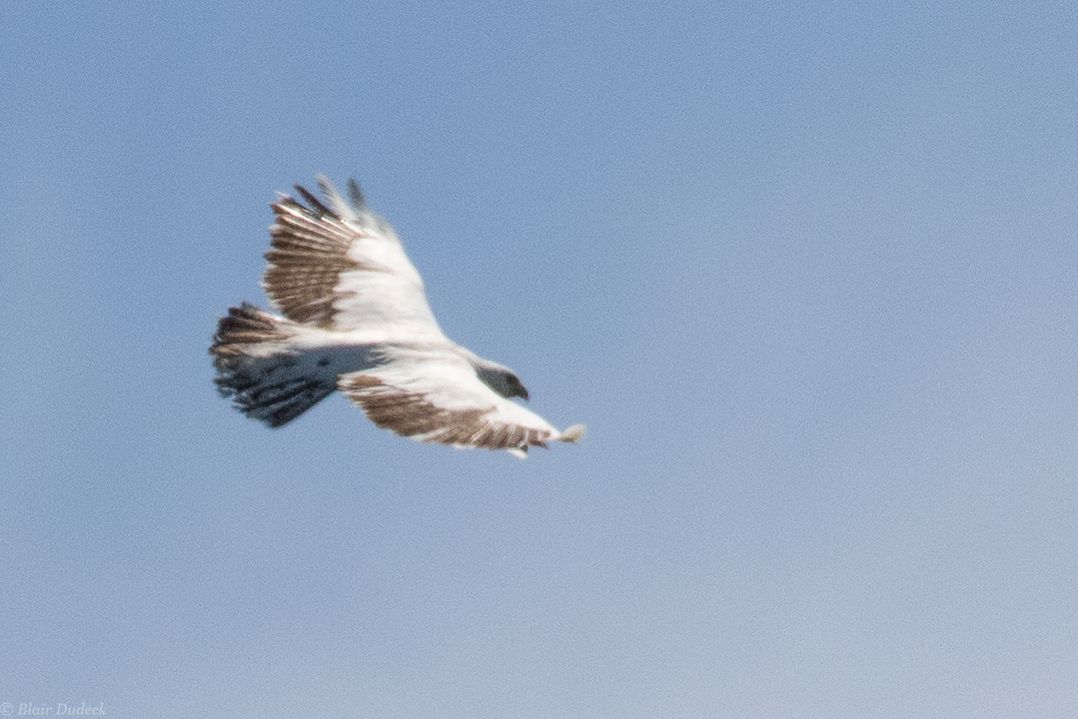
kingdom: Animalia
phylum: Chordata
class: Aves
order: Accipitriformes
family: Accipitridae
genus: Buteo
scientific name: Buteo jamaicensis
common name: Red-tailed hawk
